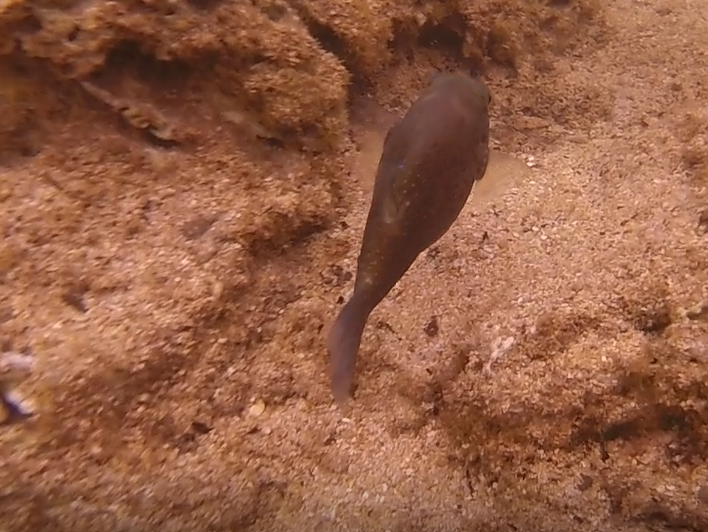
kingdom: Animalia
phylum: Chordata
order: Tetraodontiformes
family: Tetraodontidae
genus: Canthigaster
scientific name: Canthigaster amboinensis
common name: Ambon pufferfish
